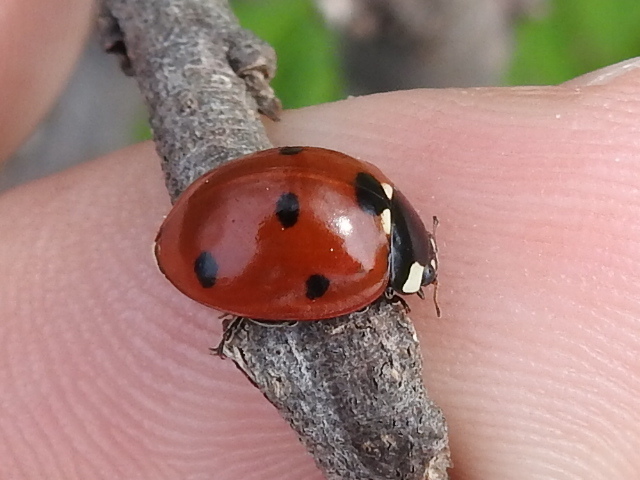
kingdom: Animalia
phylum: Arthropoda
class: Insecta
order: Coleoptera
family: Coccinellidae
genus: Coccinella
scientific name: Coccinella septempunctata
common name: Sevenspotted lady beetle
